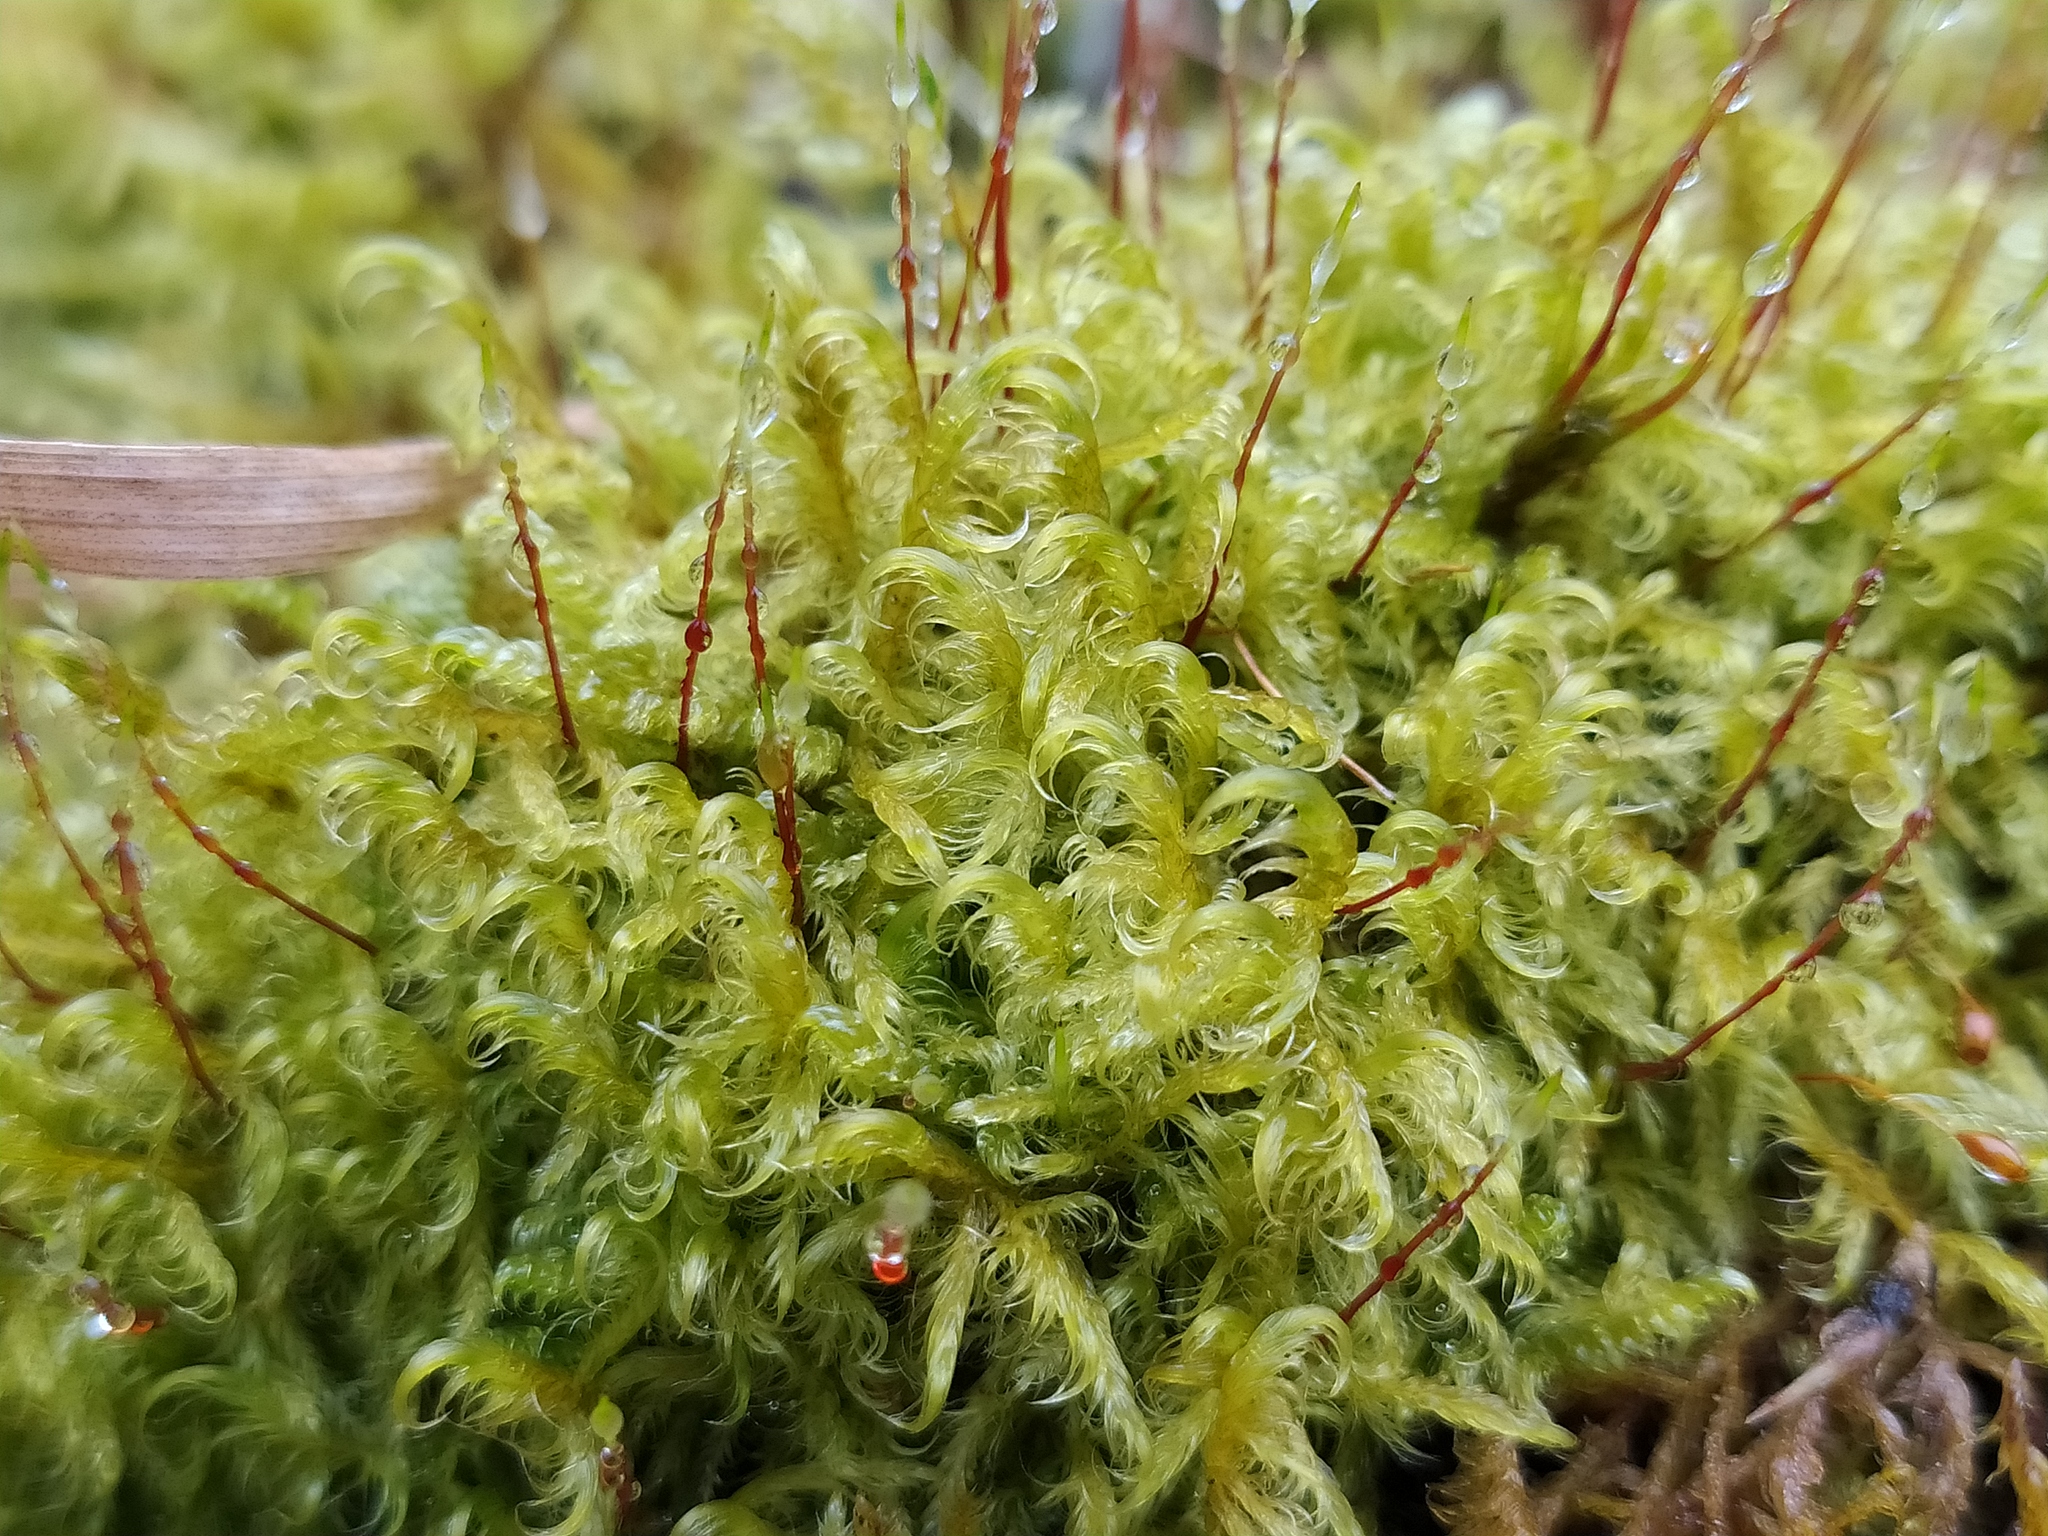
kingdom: Plantae
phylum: Bryophyta
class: Bryopsida
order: Hypnales
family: Scorpidiaceae
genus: Sanionia
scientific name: Sanionia uncinata
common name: Sickle moss
